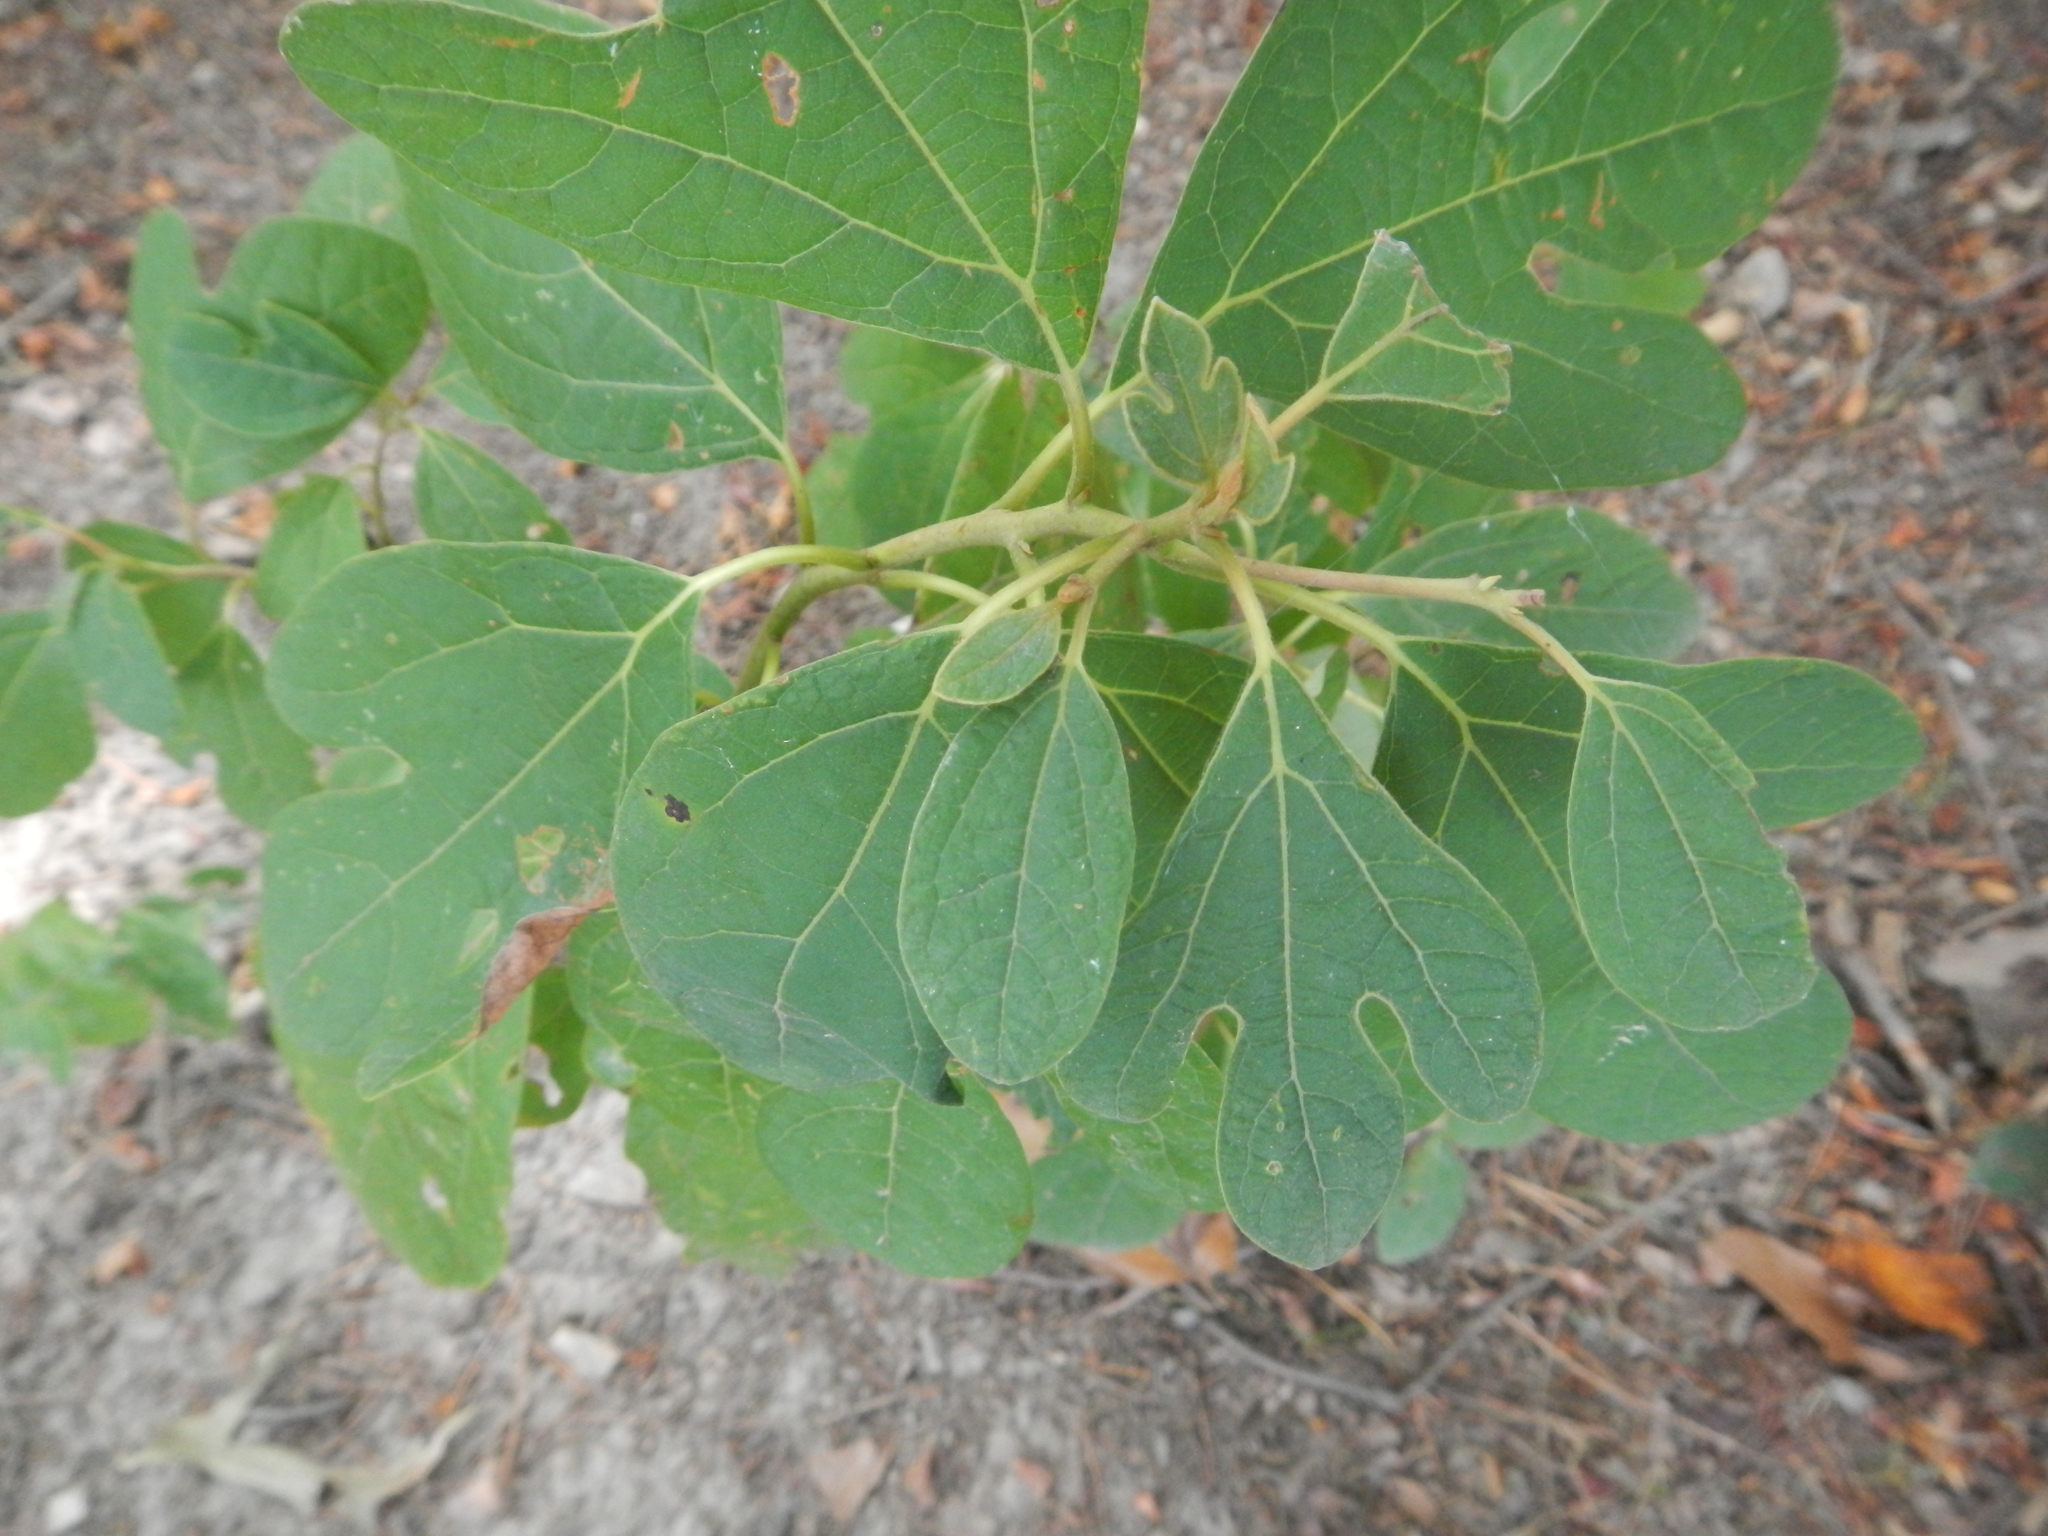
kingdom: Plantae
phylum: Tracheophyta
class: Magnoliopsida
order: Laurales
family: Lauraceae
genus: Sassafras
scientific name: Sassafras albidum
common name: Sassafras
